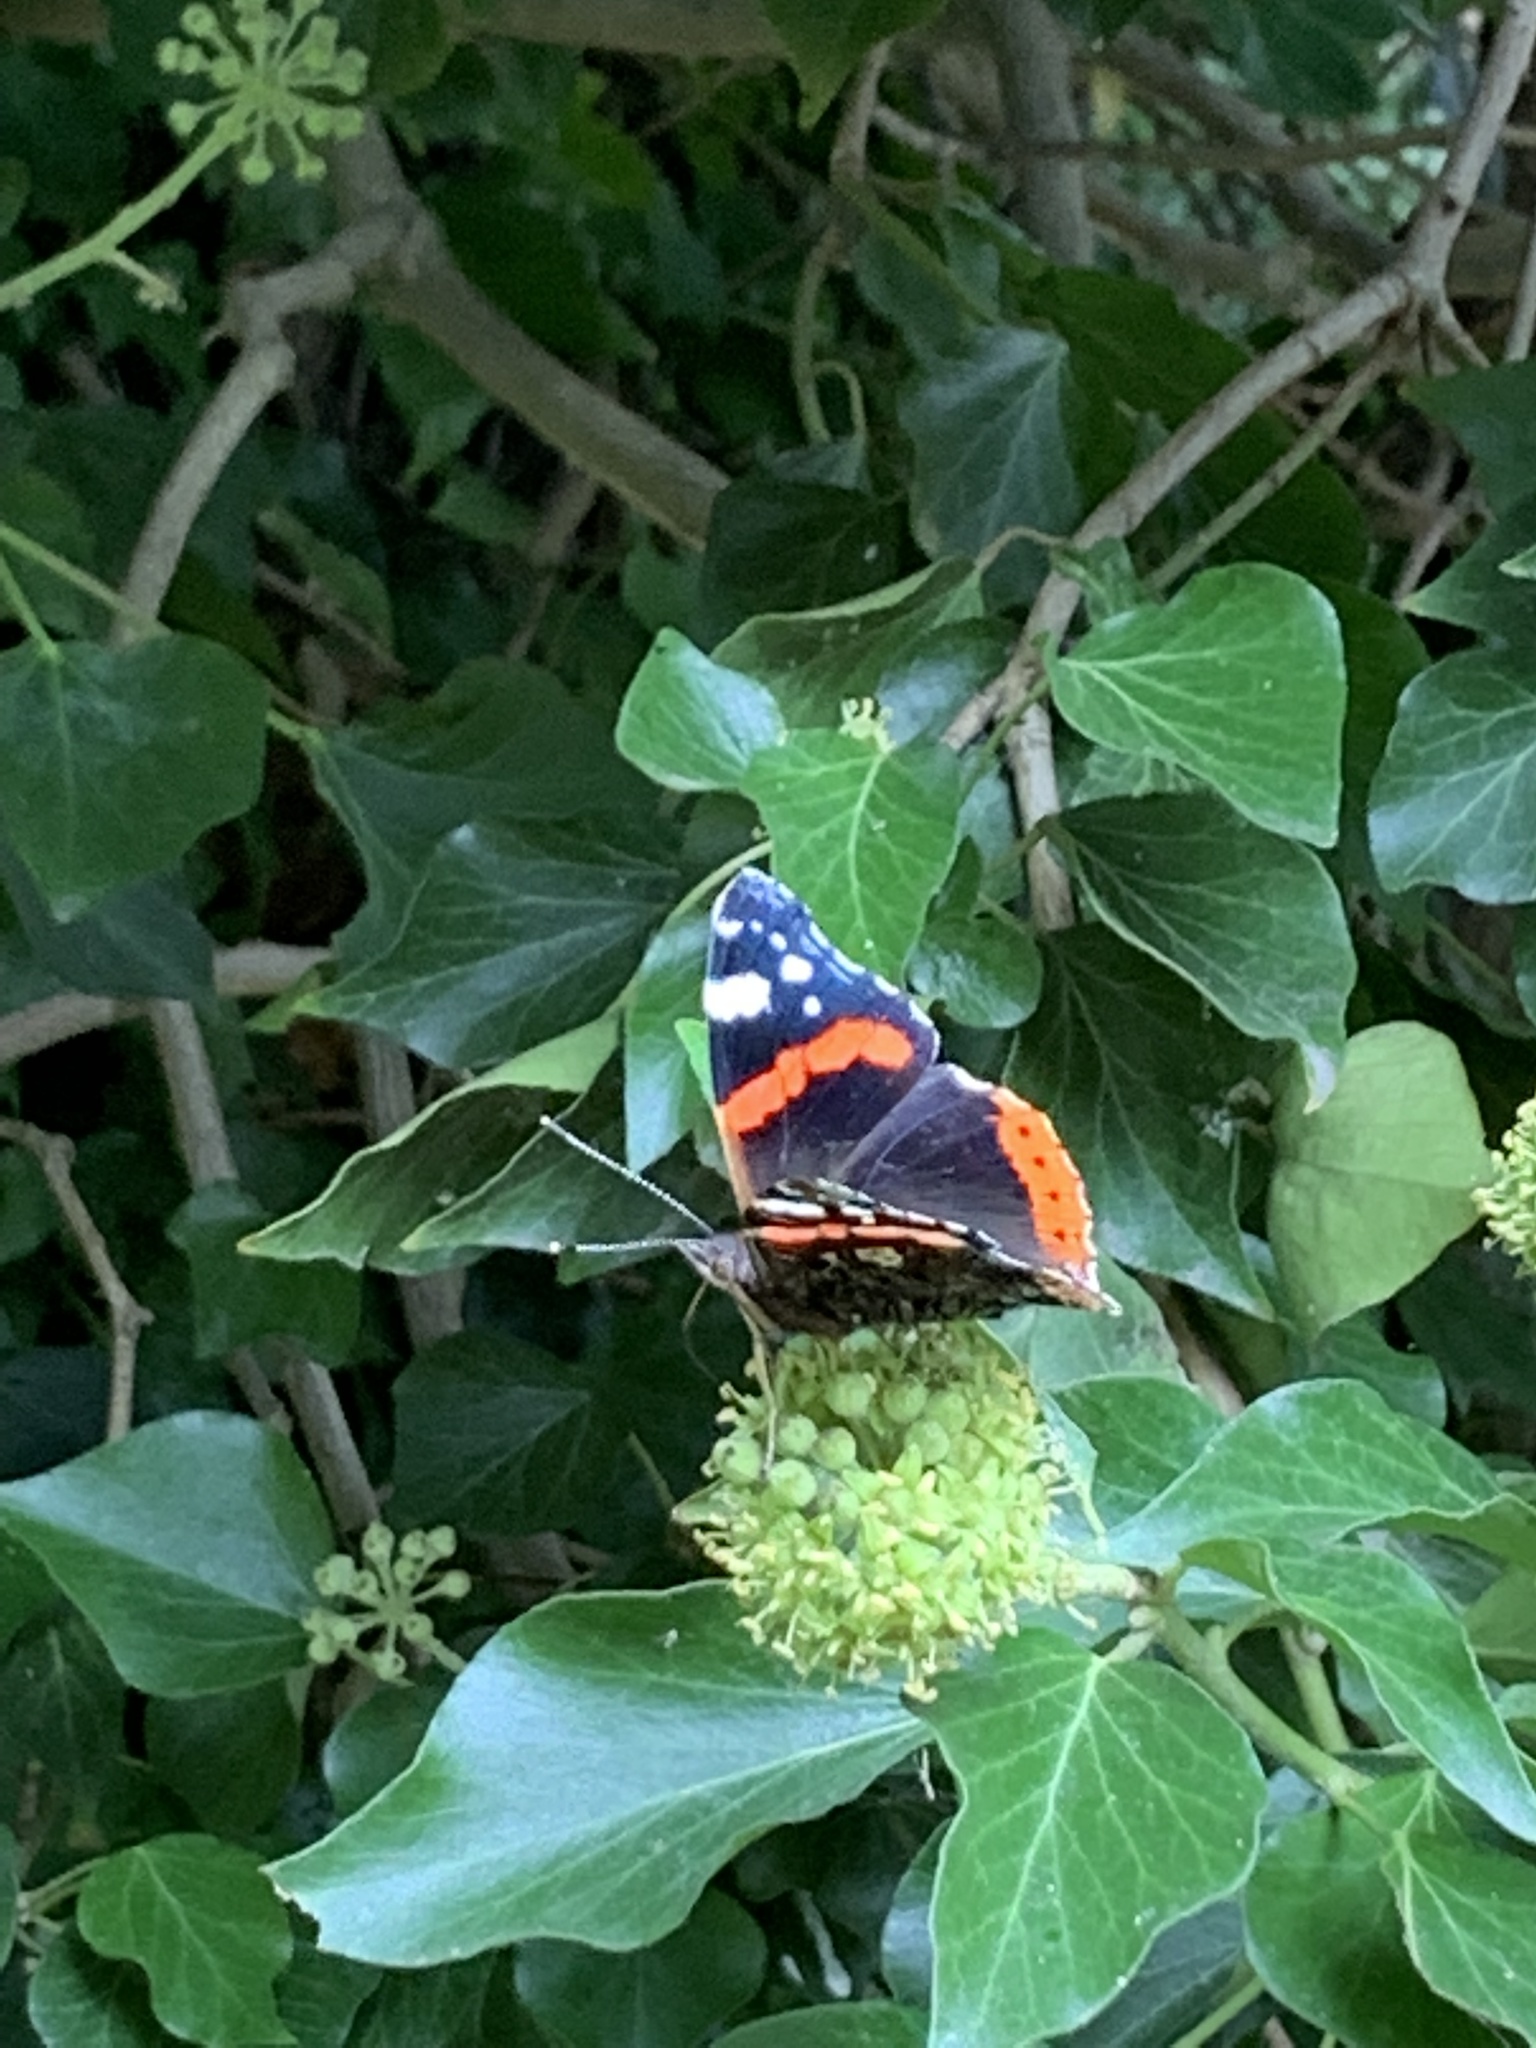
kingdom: Animalia
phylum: Arthropoda
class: Insecta
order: Lepidoptera
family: Nymphalidae
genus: Vanessa
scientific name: Vanessa atalanta
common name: Red admiral
